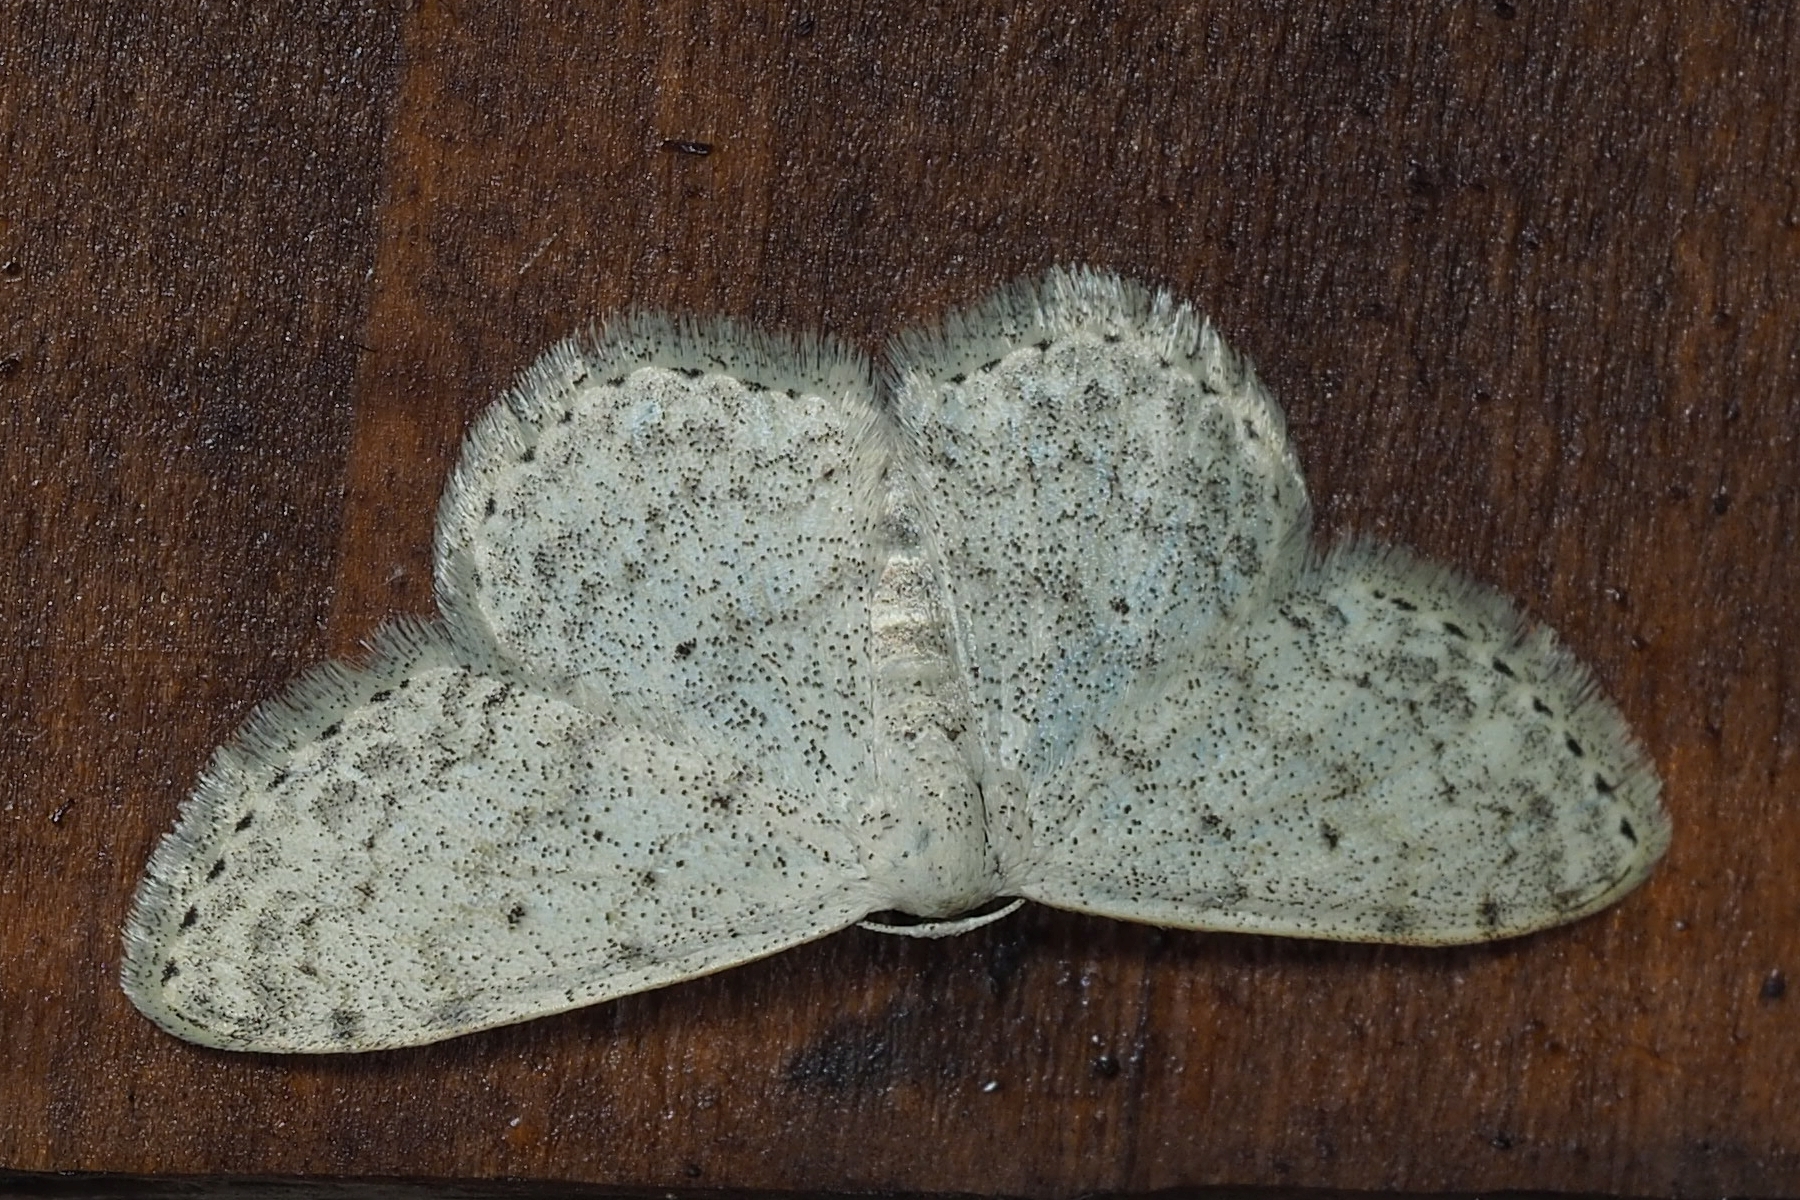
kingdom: Animalia
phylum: Arthropoda
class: Insecta
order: Lepidoptera
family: Geometridae
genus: Scopula
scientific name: Scopula marginepunctata
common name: Mullein wave
